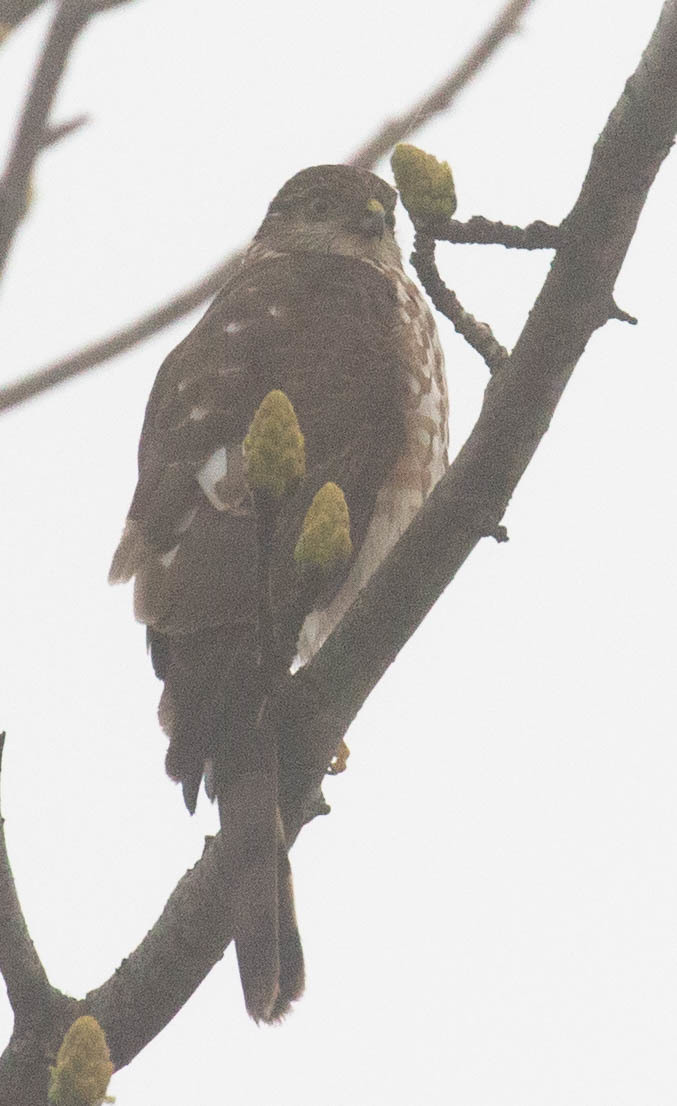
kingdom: Animalia
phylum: Chordata
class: Aves
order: Accipitriformes
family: Accipitridae
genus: Accipiter
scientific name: Accipiter striatus
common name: Sharp-shinned hawk
